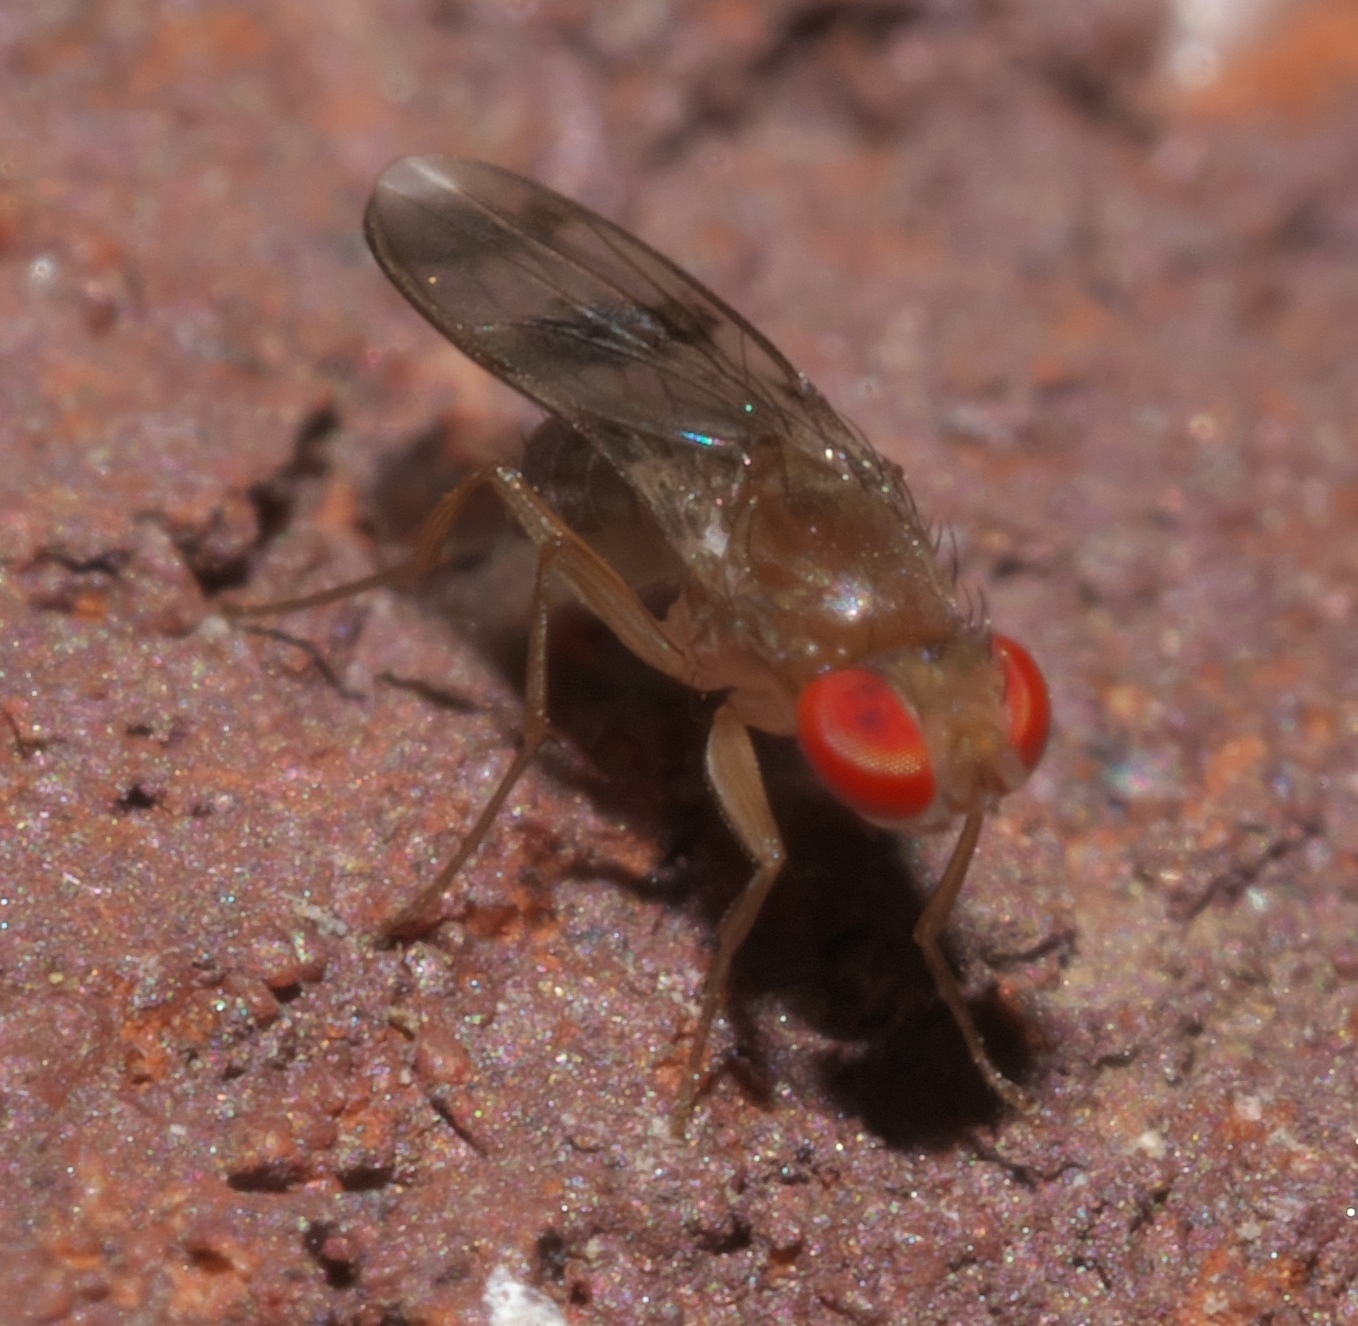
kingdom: Animalia
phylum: Arthropoda
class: Insecta
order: Diptera
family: Drosophilidae
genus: Chymomyza
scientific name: Chymomyza amoena
